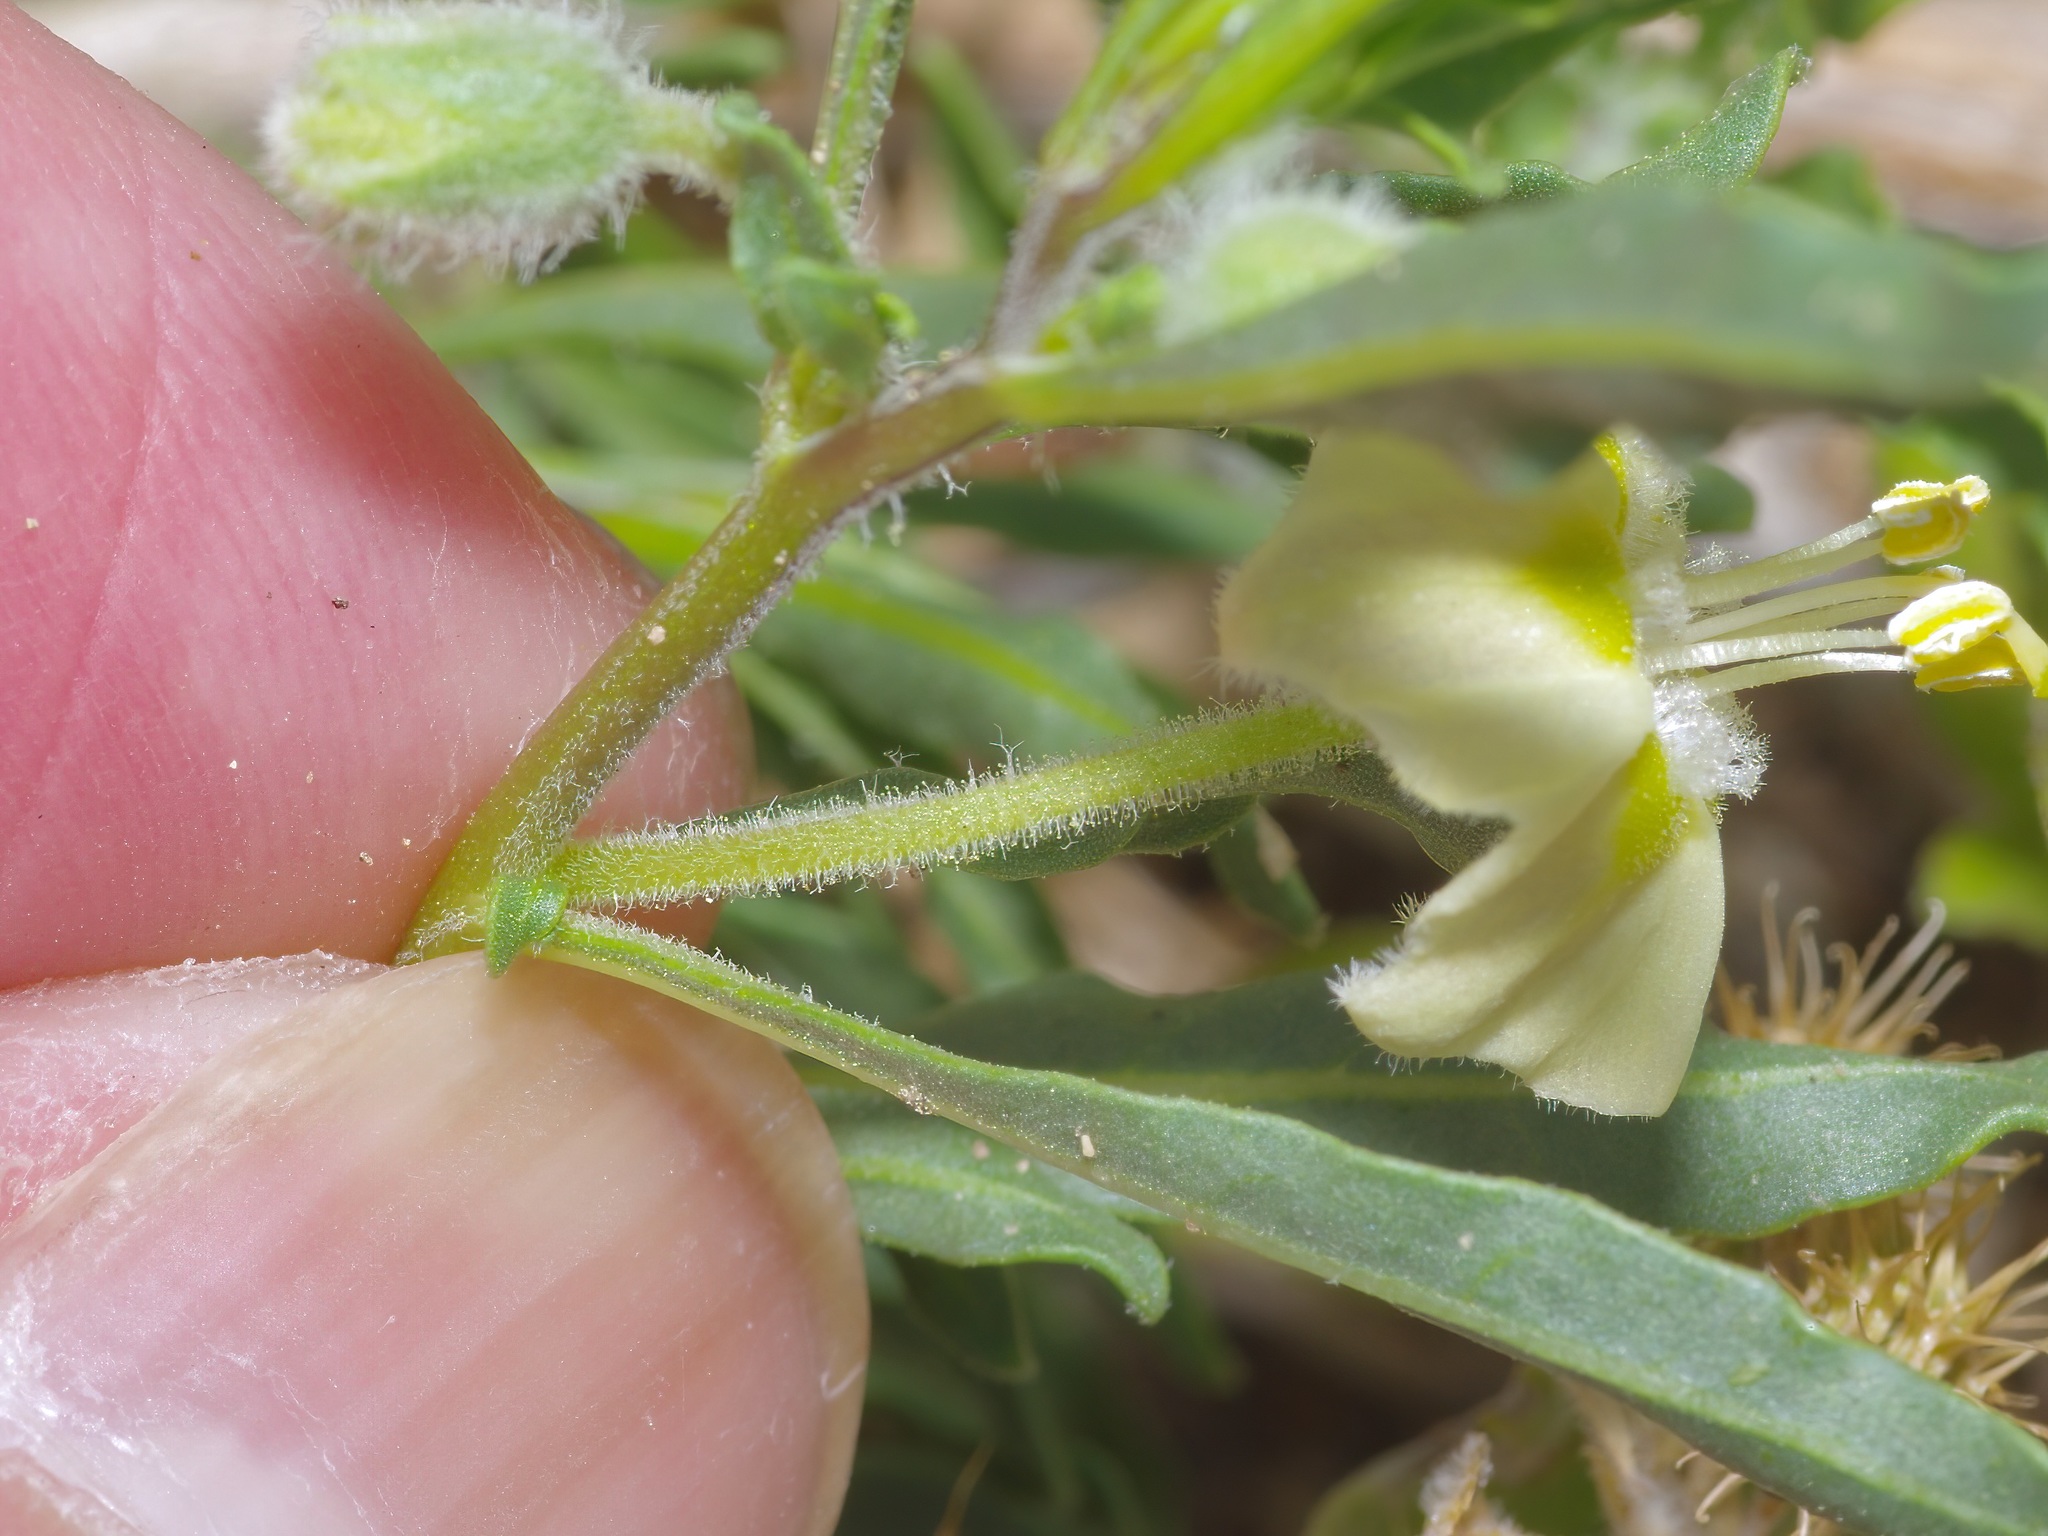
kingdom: Plantae
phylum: Tracheophyta
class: Magnoliopsida
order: Solanales
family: Solanaceae
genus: Chamaesaracha
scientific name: Chamaesaracha edwardsiana
